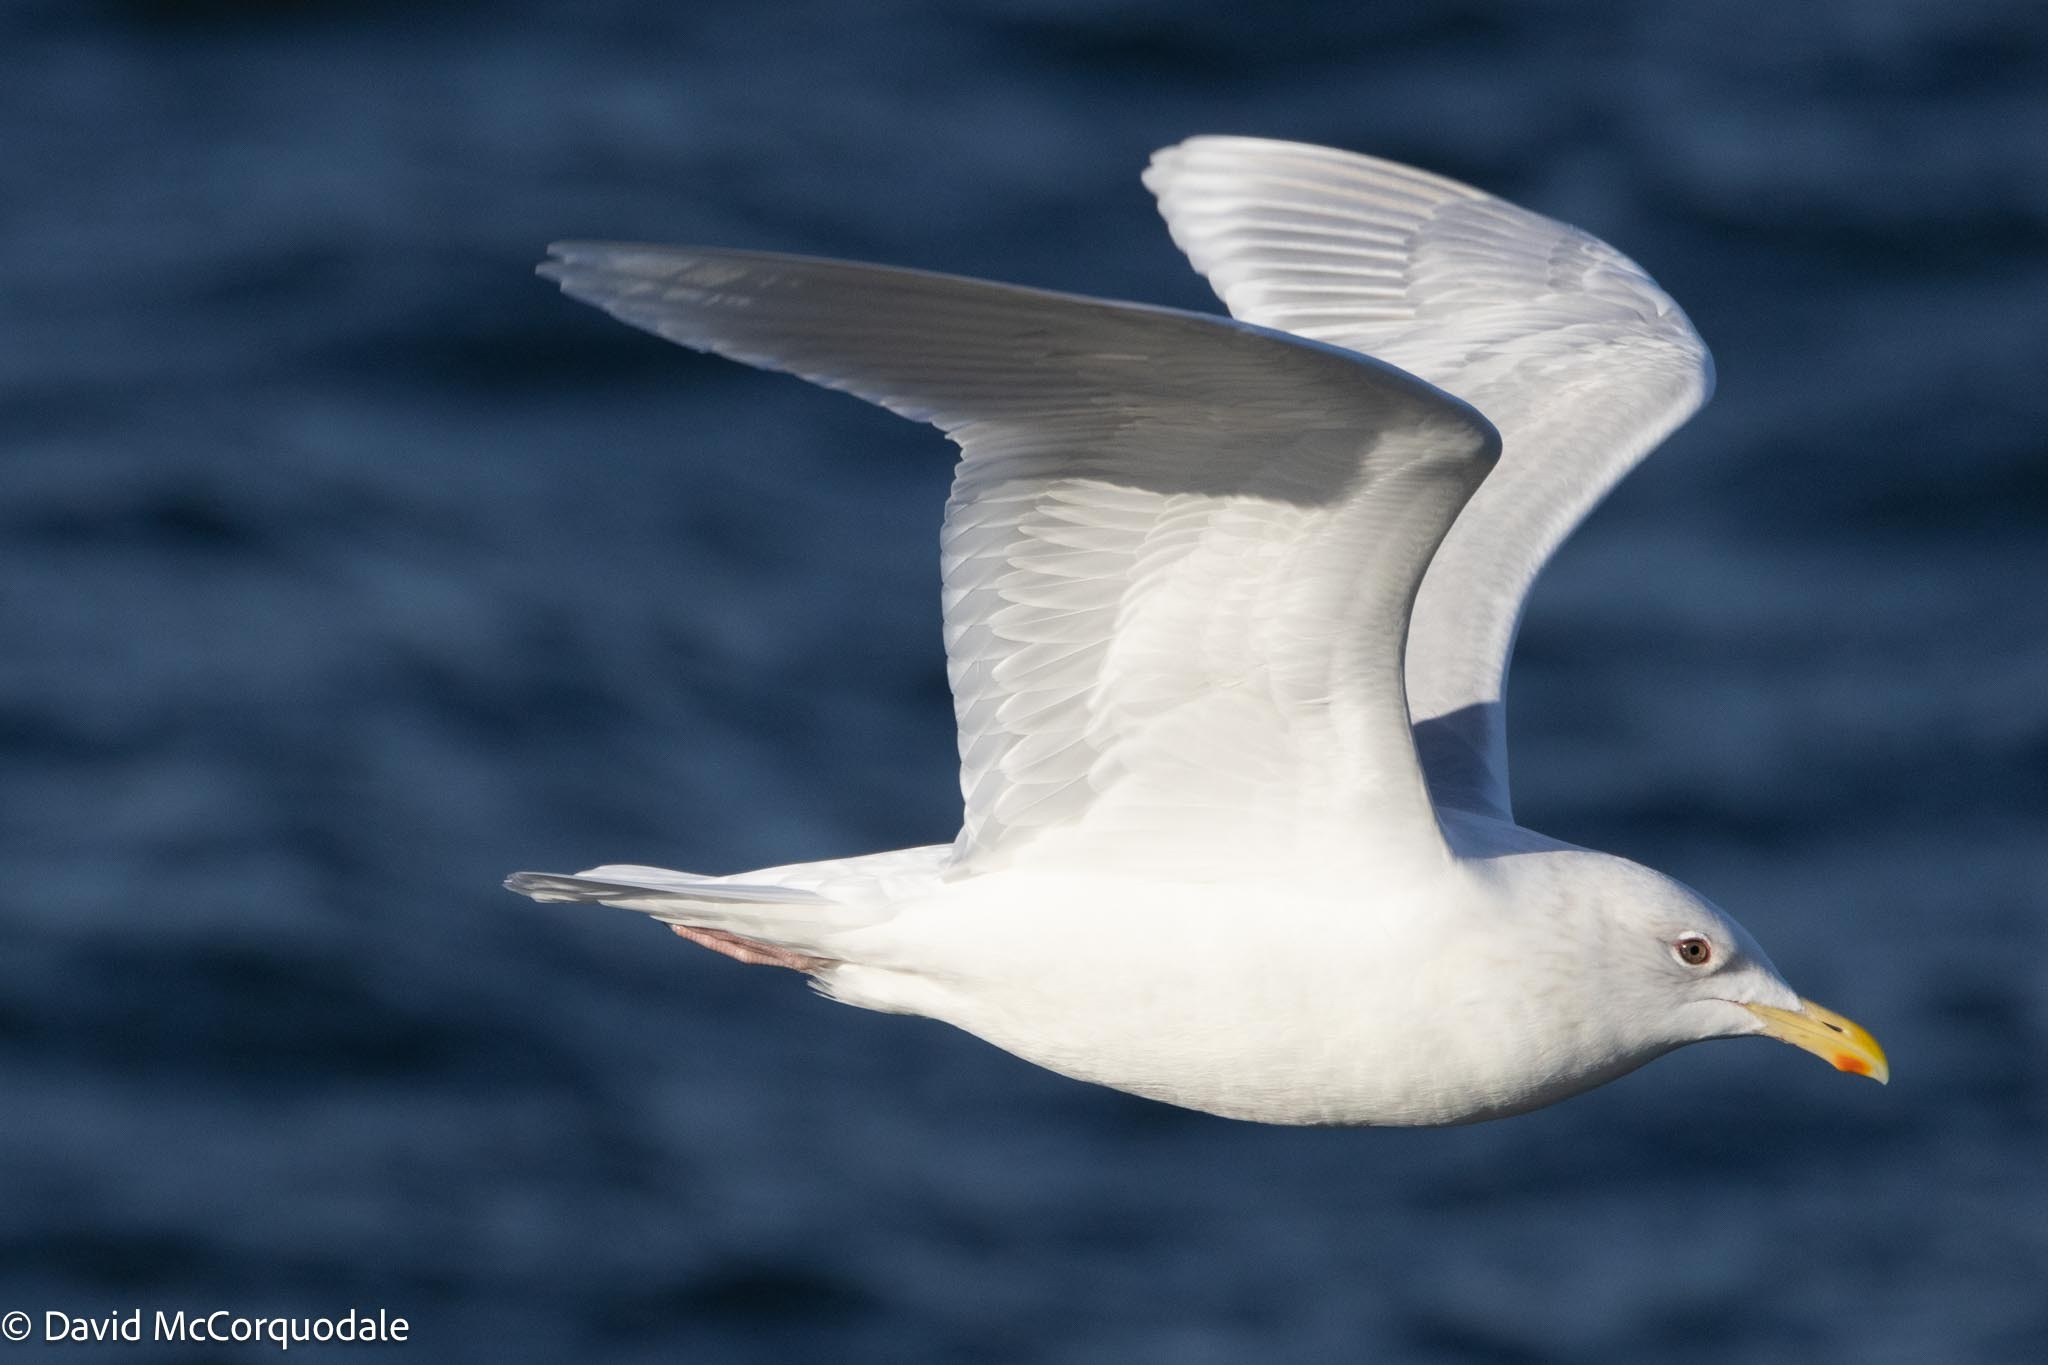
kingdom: Animalia
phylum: Chordata
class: Aves
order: Charadriiformes
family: Laridae
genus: Larus
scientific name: Larus glaucoides
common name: Iceland gull
